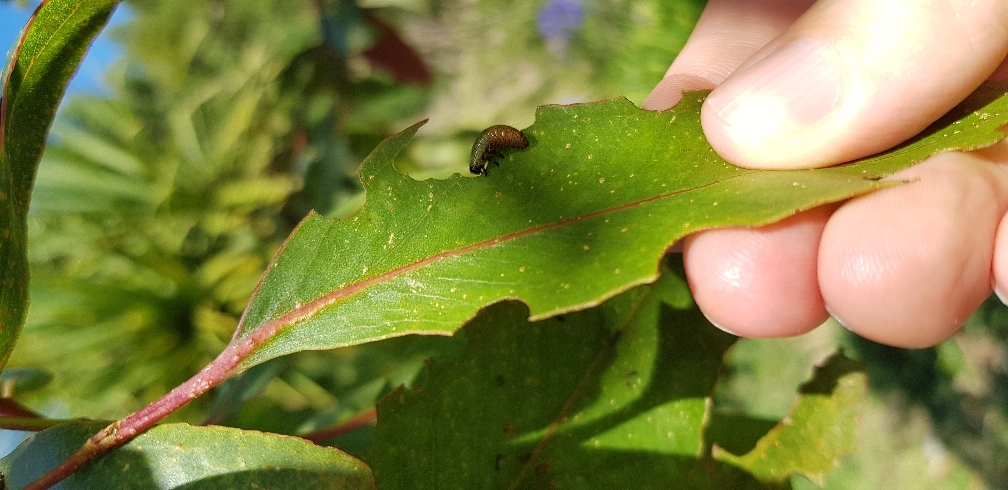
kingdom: Animalia
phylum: Arthropoda
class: Insecta
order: Coleoptera
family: Chrysomelidae
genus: Trachymela
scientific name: Trachymela sloanei
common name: Australian tortoise beetle
